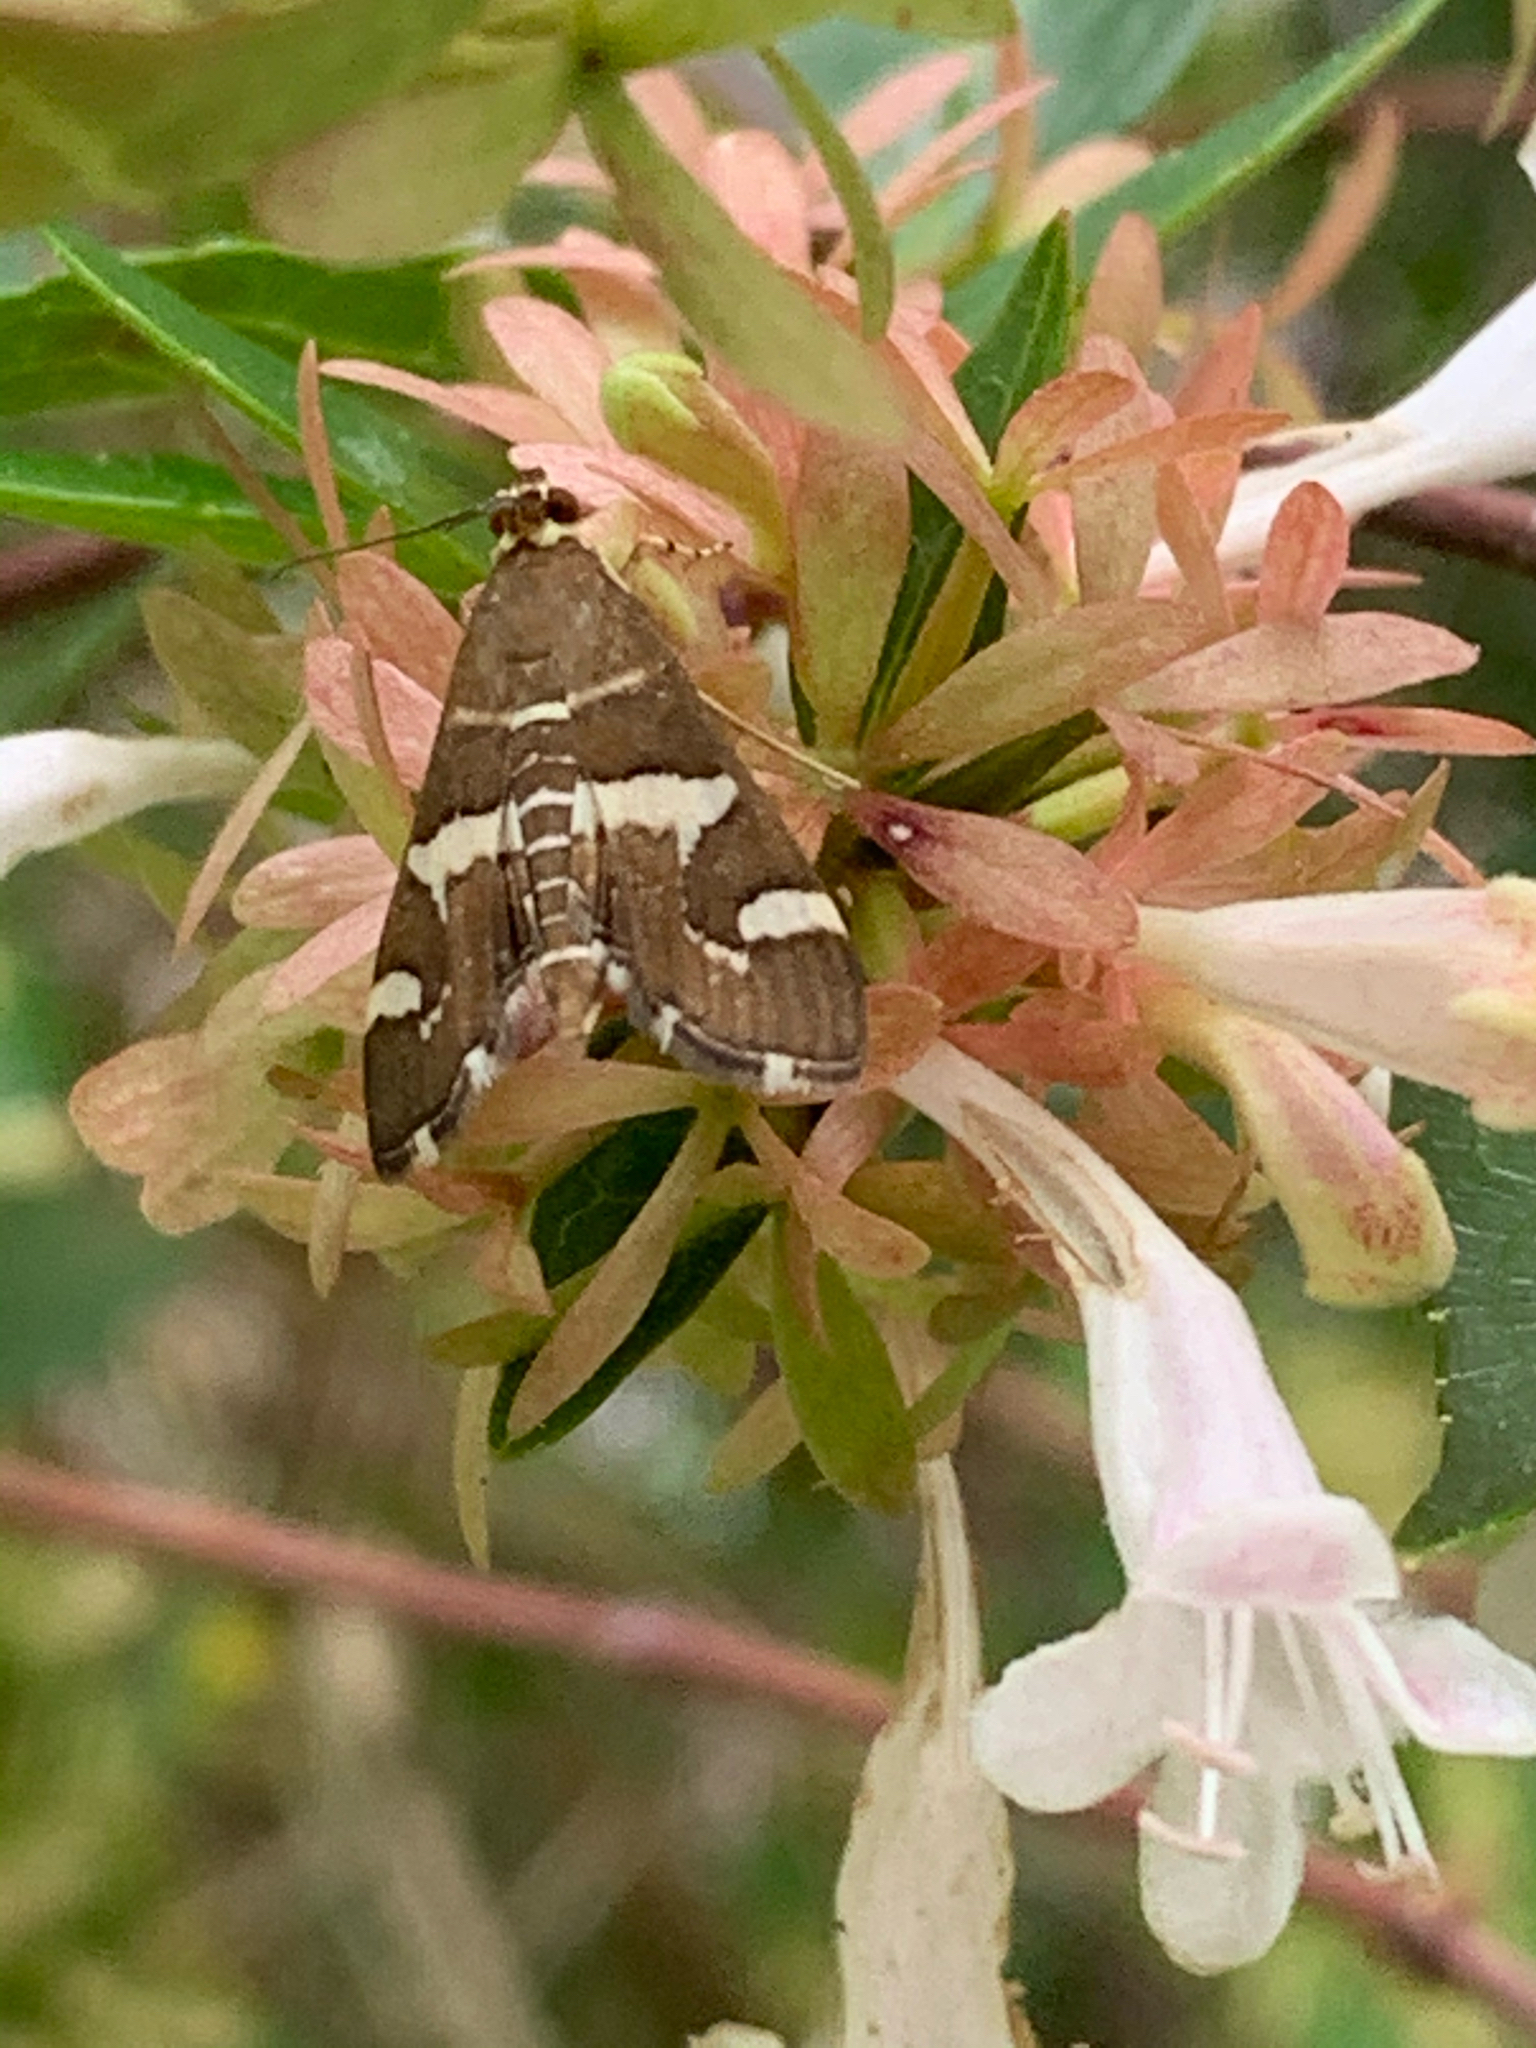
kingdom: Animalia
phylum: Arthropoda
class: Insecta
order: Lepidoptera
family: Crambidae
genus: Spoladea
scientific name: Spoladea recurvalis
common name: Beet webworm moth
